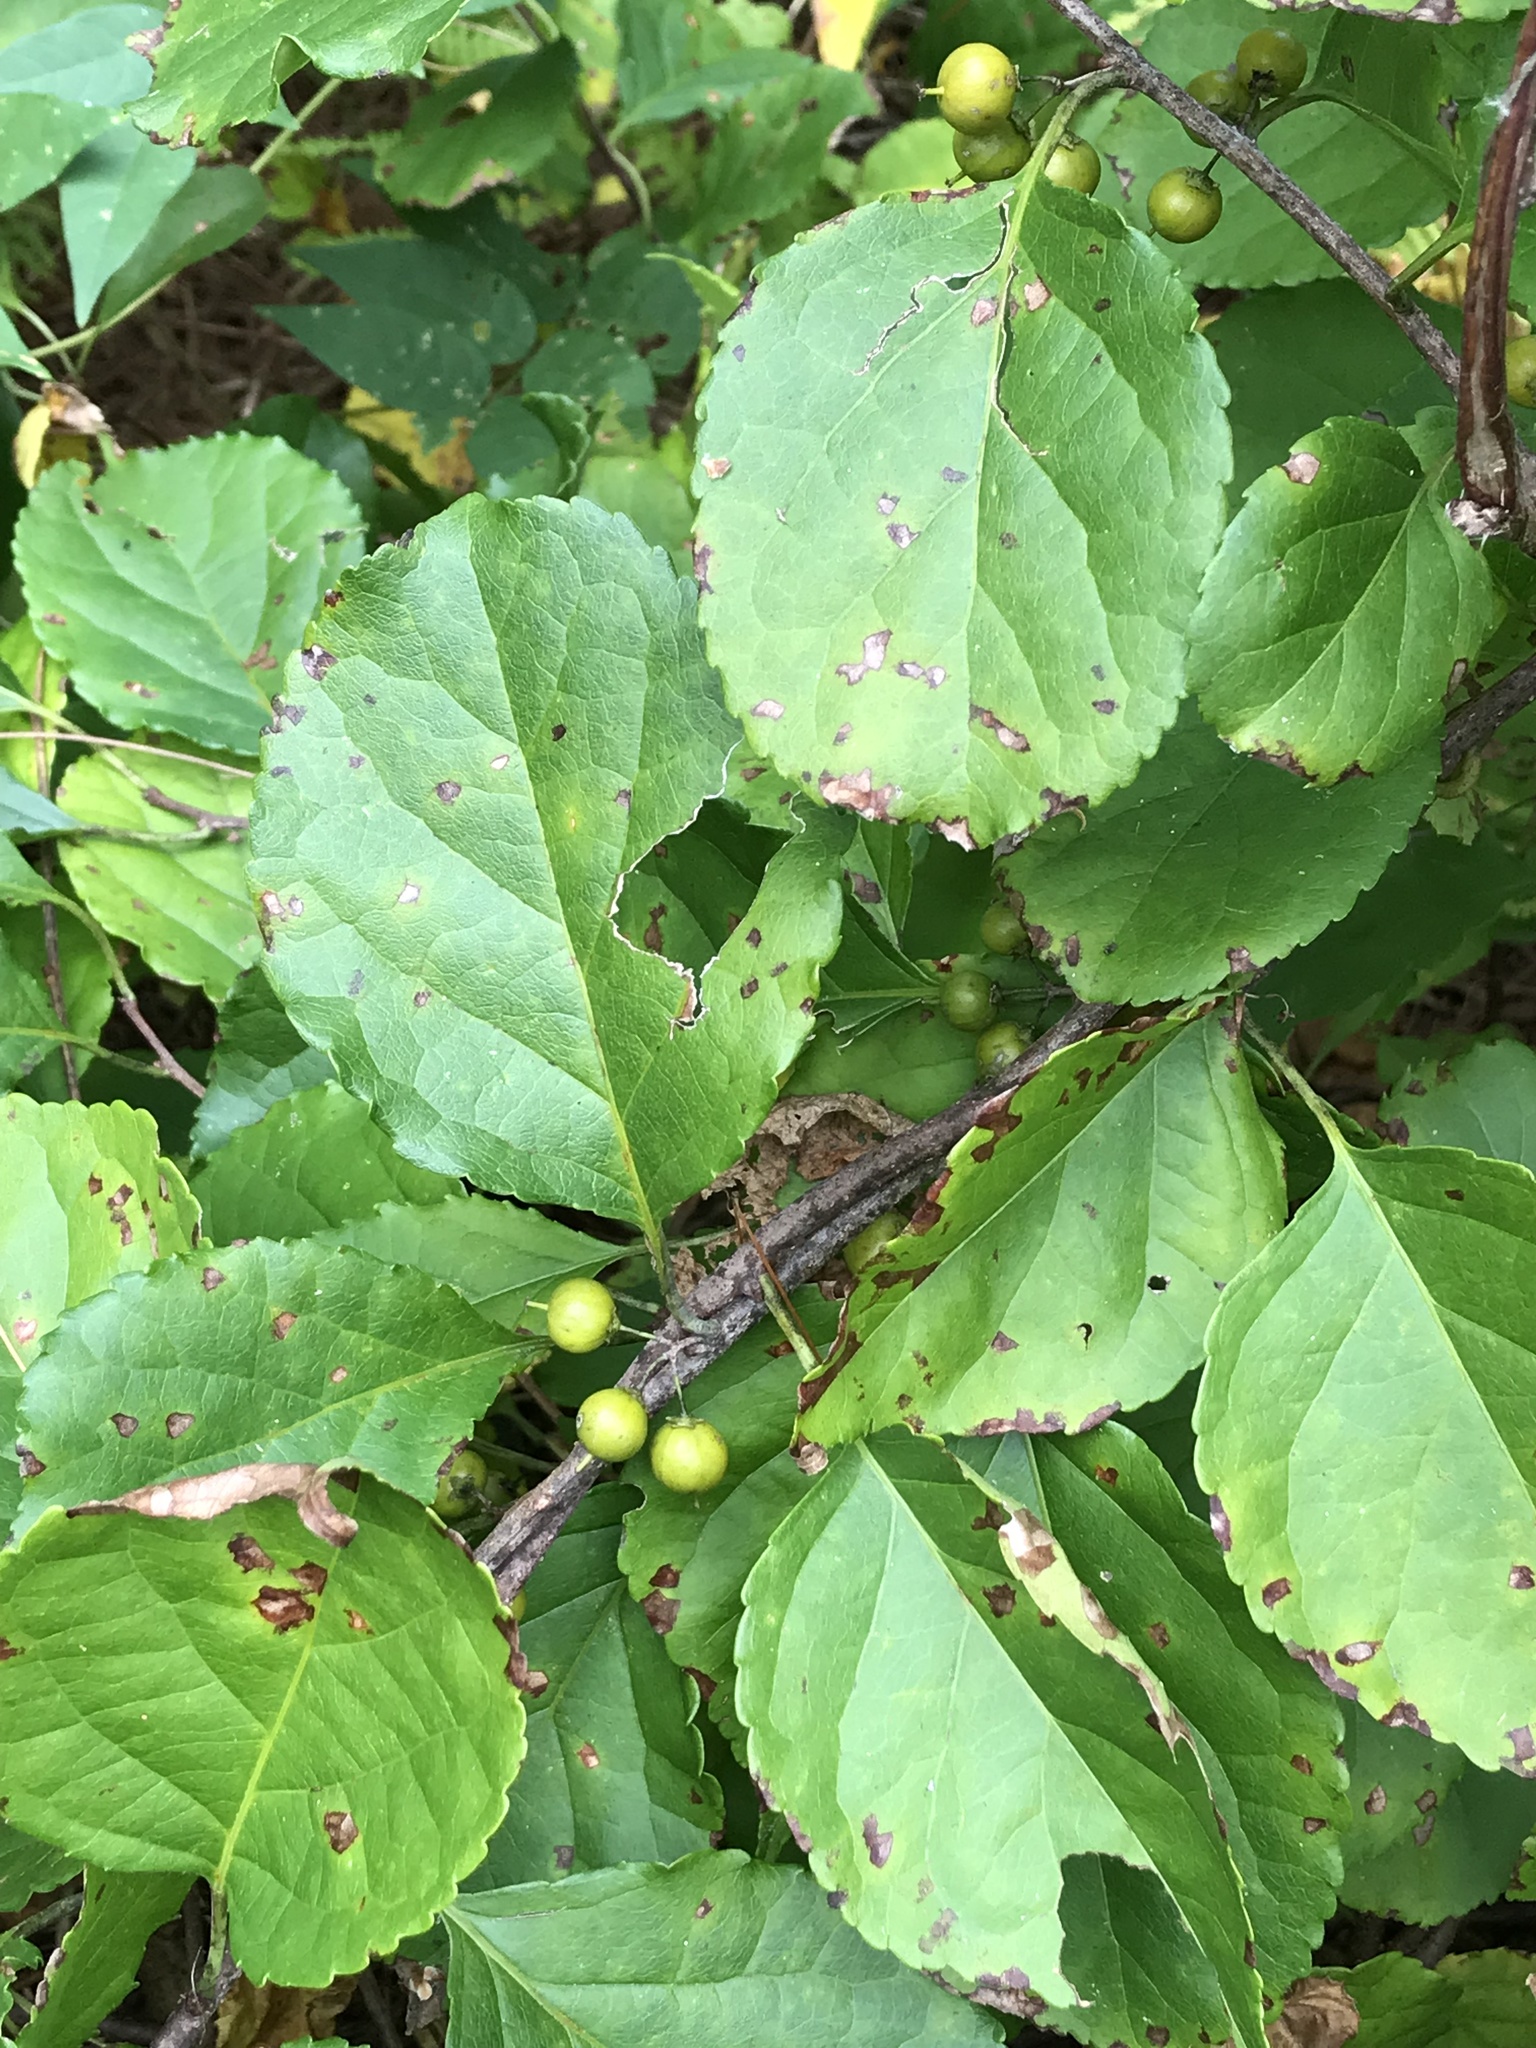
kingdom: Plantae
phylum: Tracheophyta
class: Magnoliopsida
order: Celastrales
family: Celastraceae
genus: Celastrus
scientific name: Celastrus orbiculatus
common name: Oriental bittersweet
